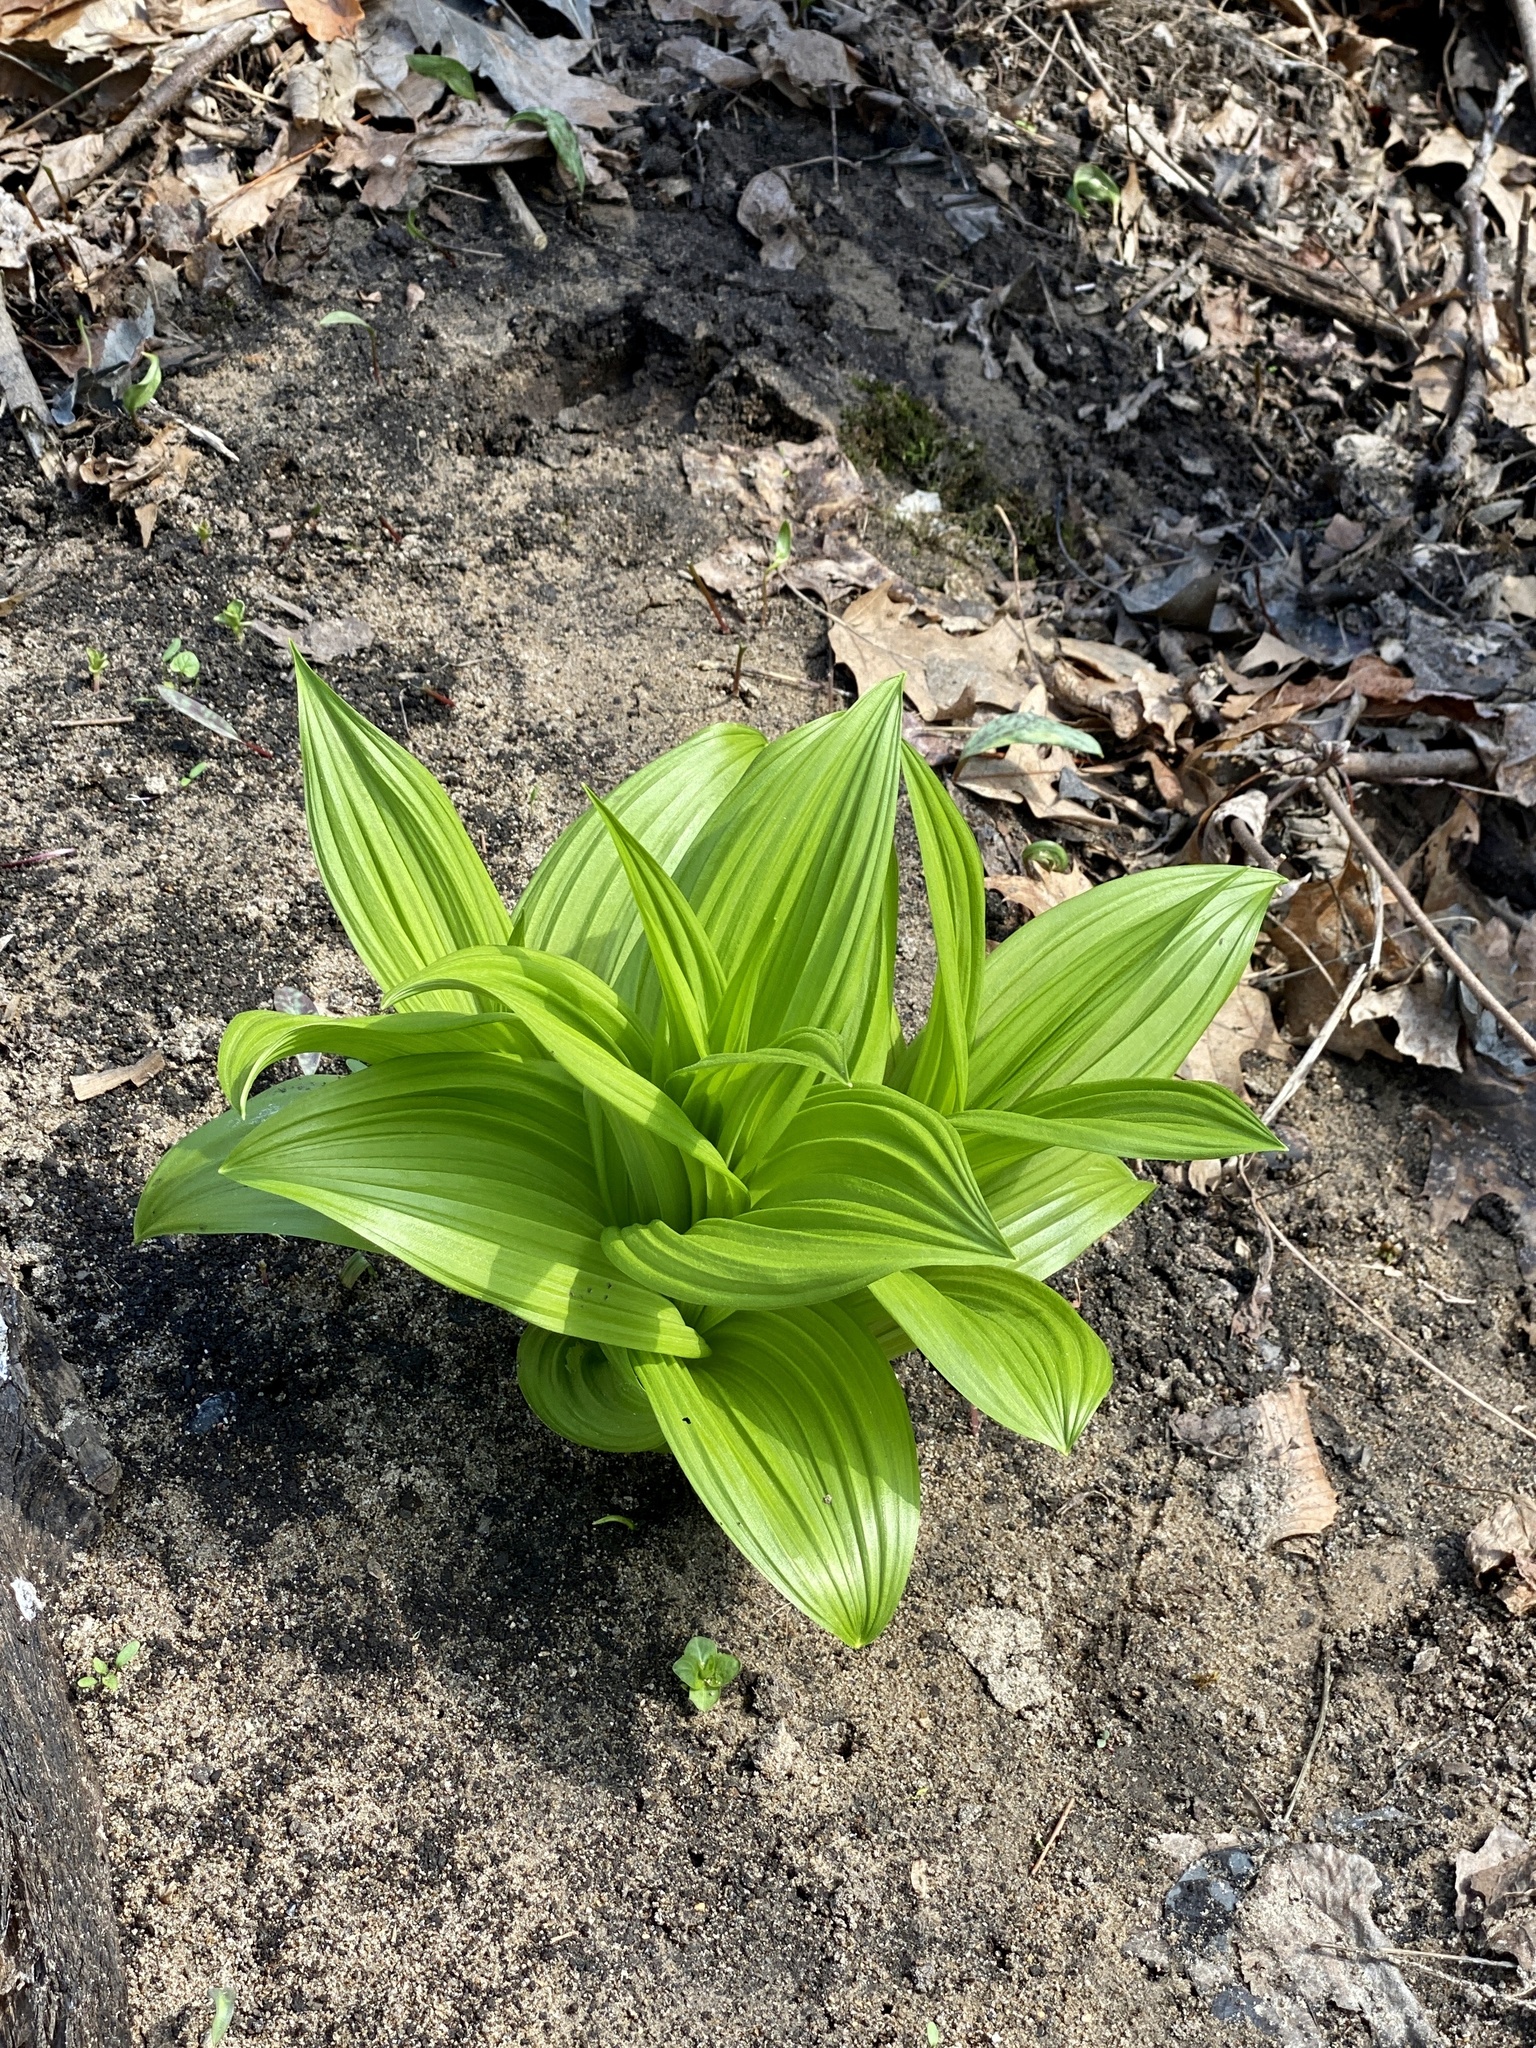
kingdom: Plantae
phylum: Tracheophyta
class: Liliopsida
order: Liliales
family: Melanthiaceae
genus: Veratrum
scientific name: Veratrum viride
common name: American false hellebore
